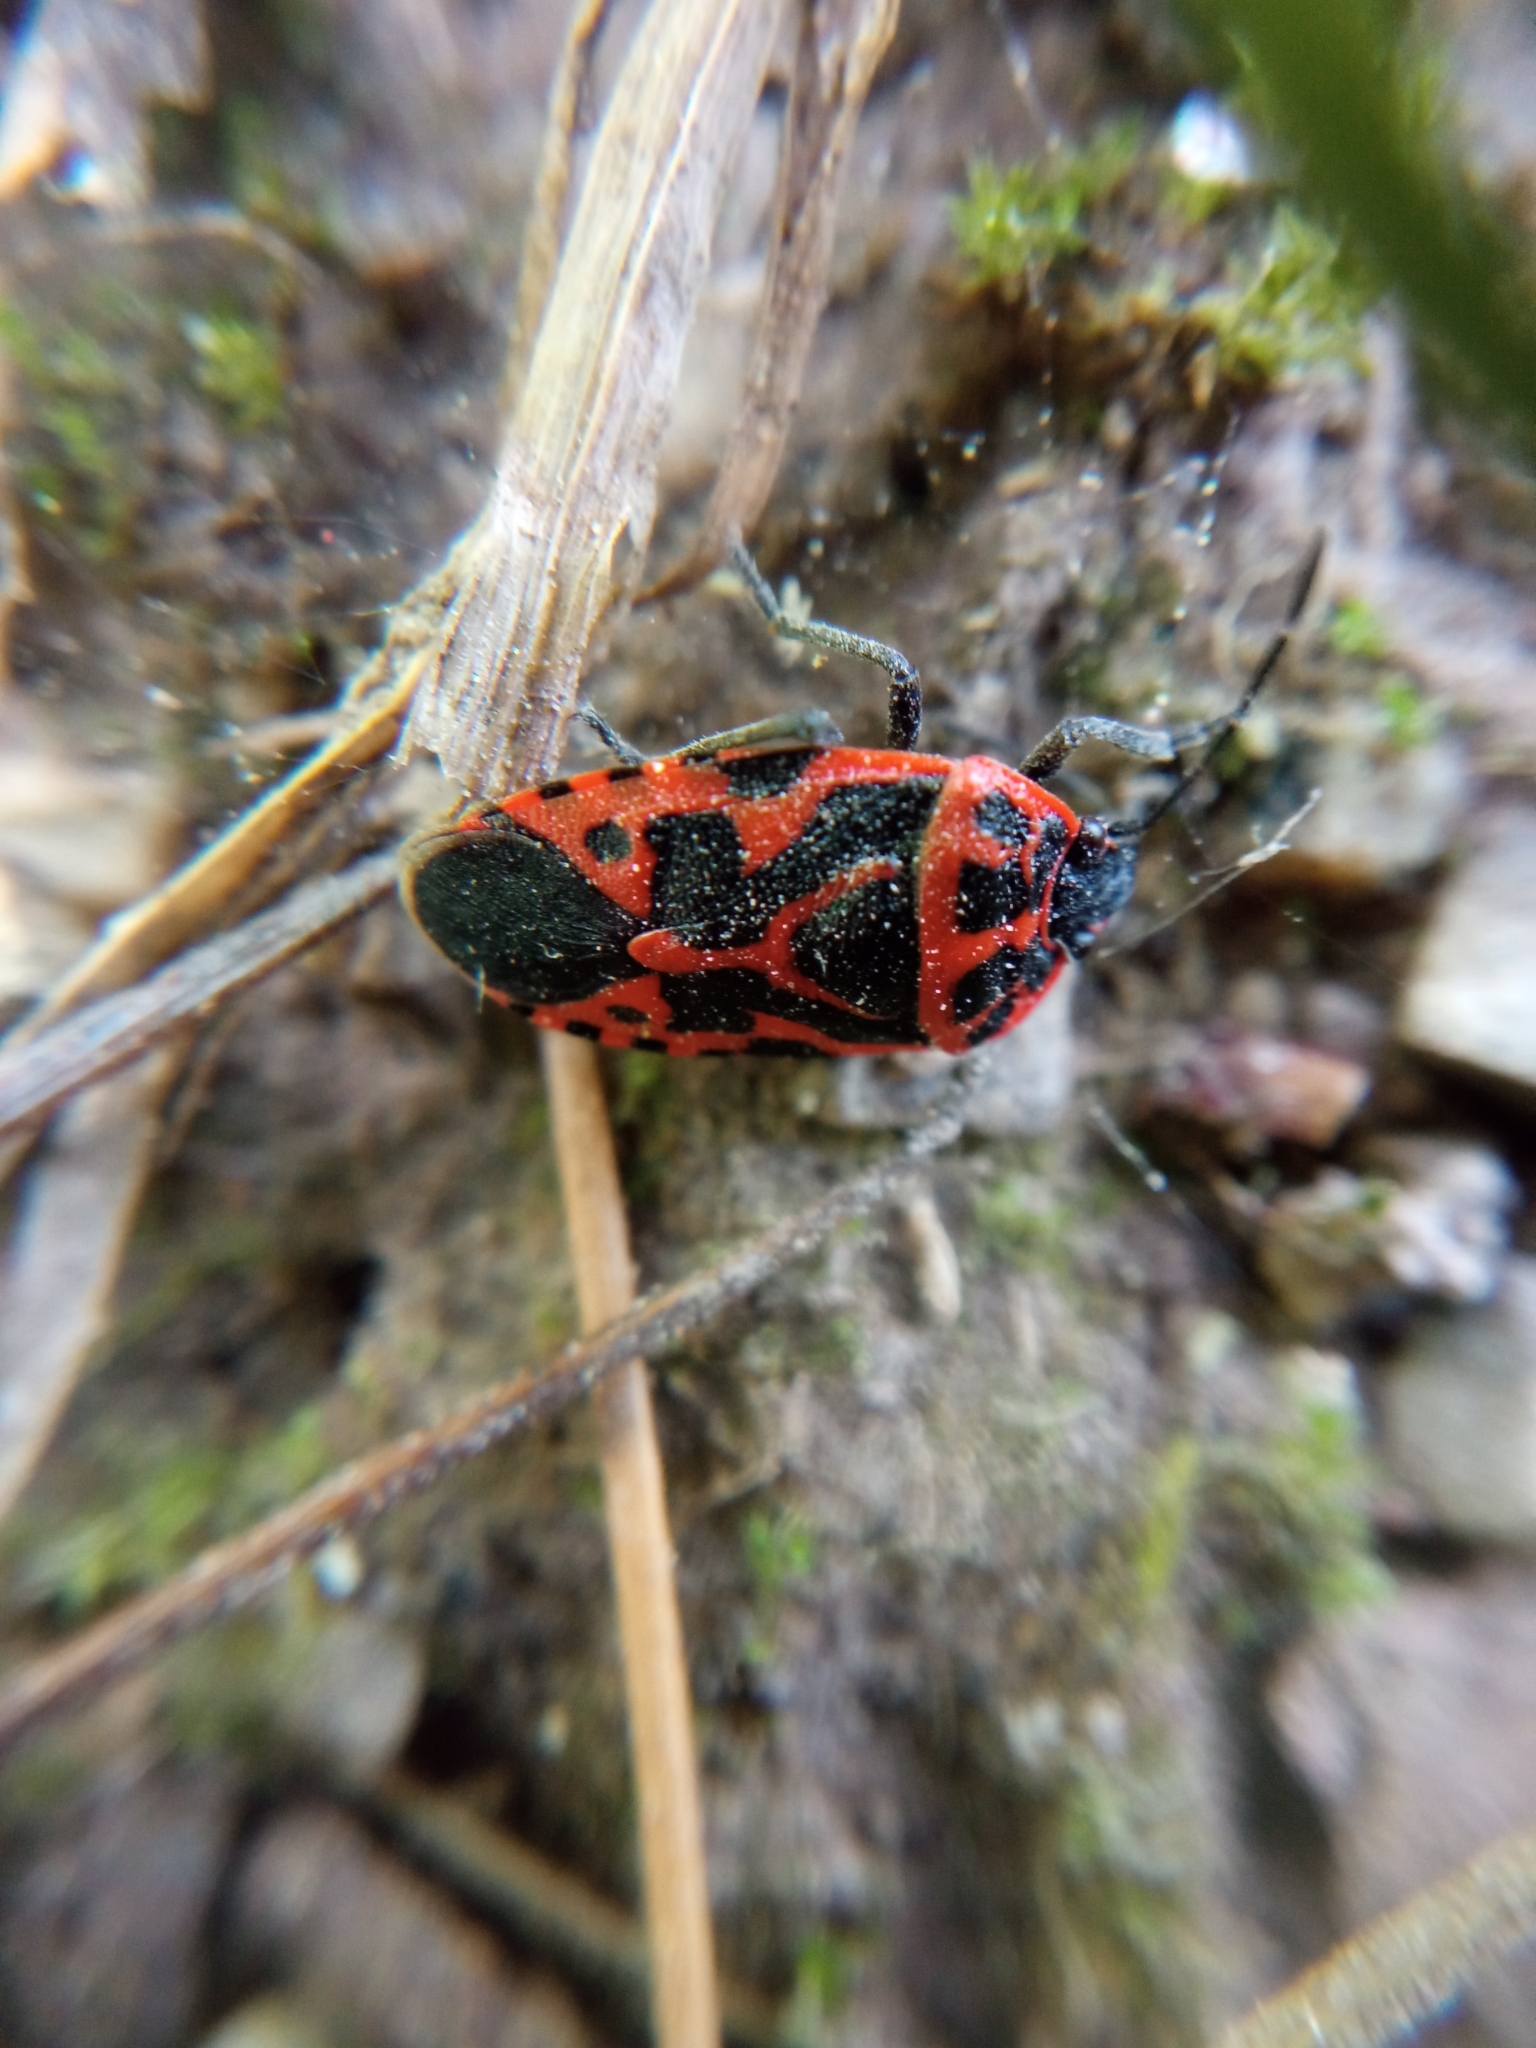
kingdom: Animalia
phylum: Arthropoda
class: Insecta
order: Hemiptera
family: Pentatomidae
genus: Eurydema
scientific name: Eurydema ventralis
